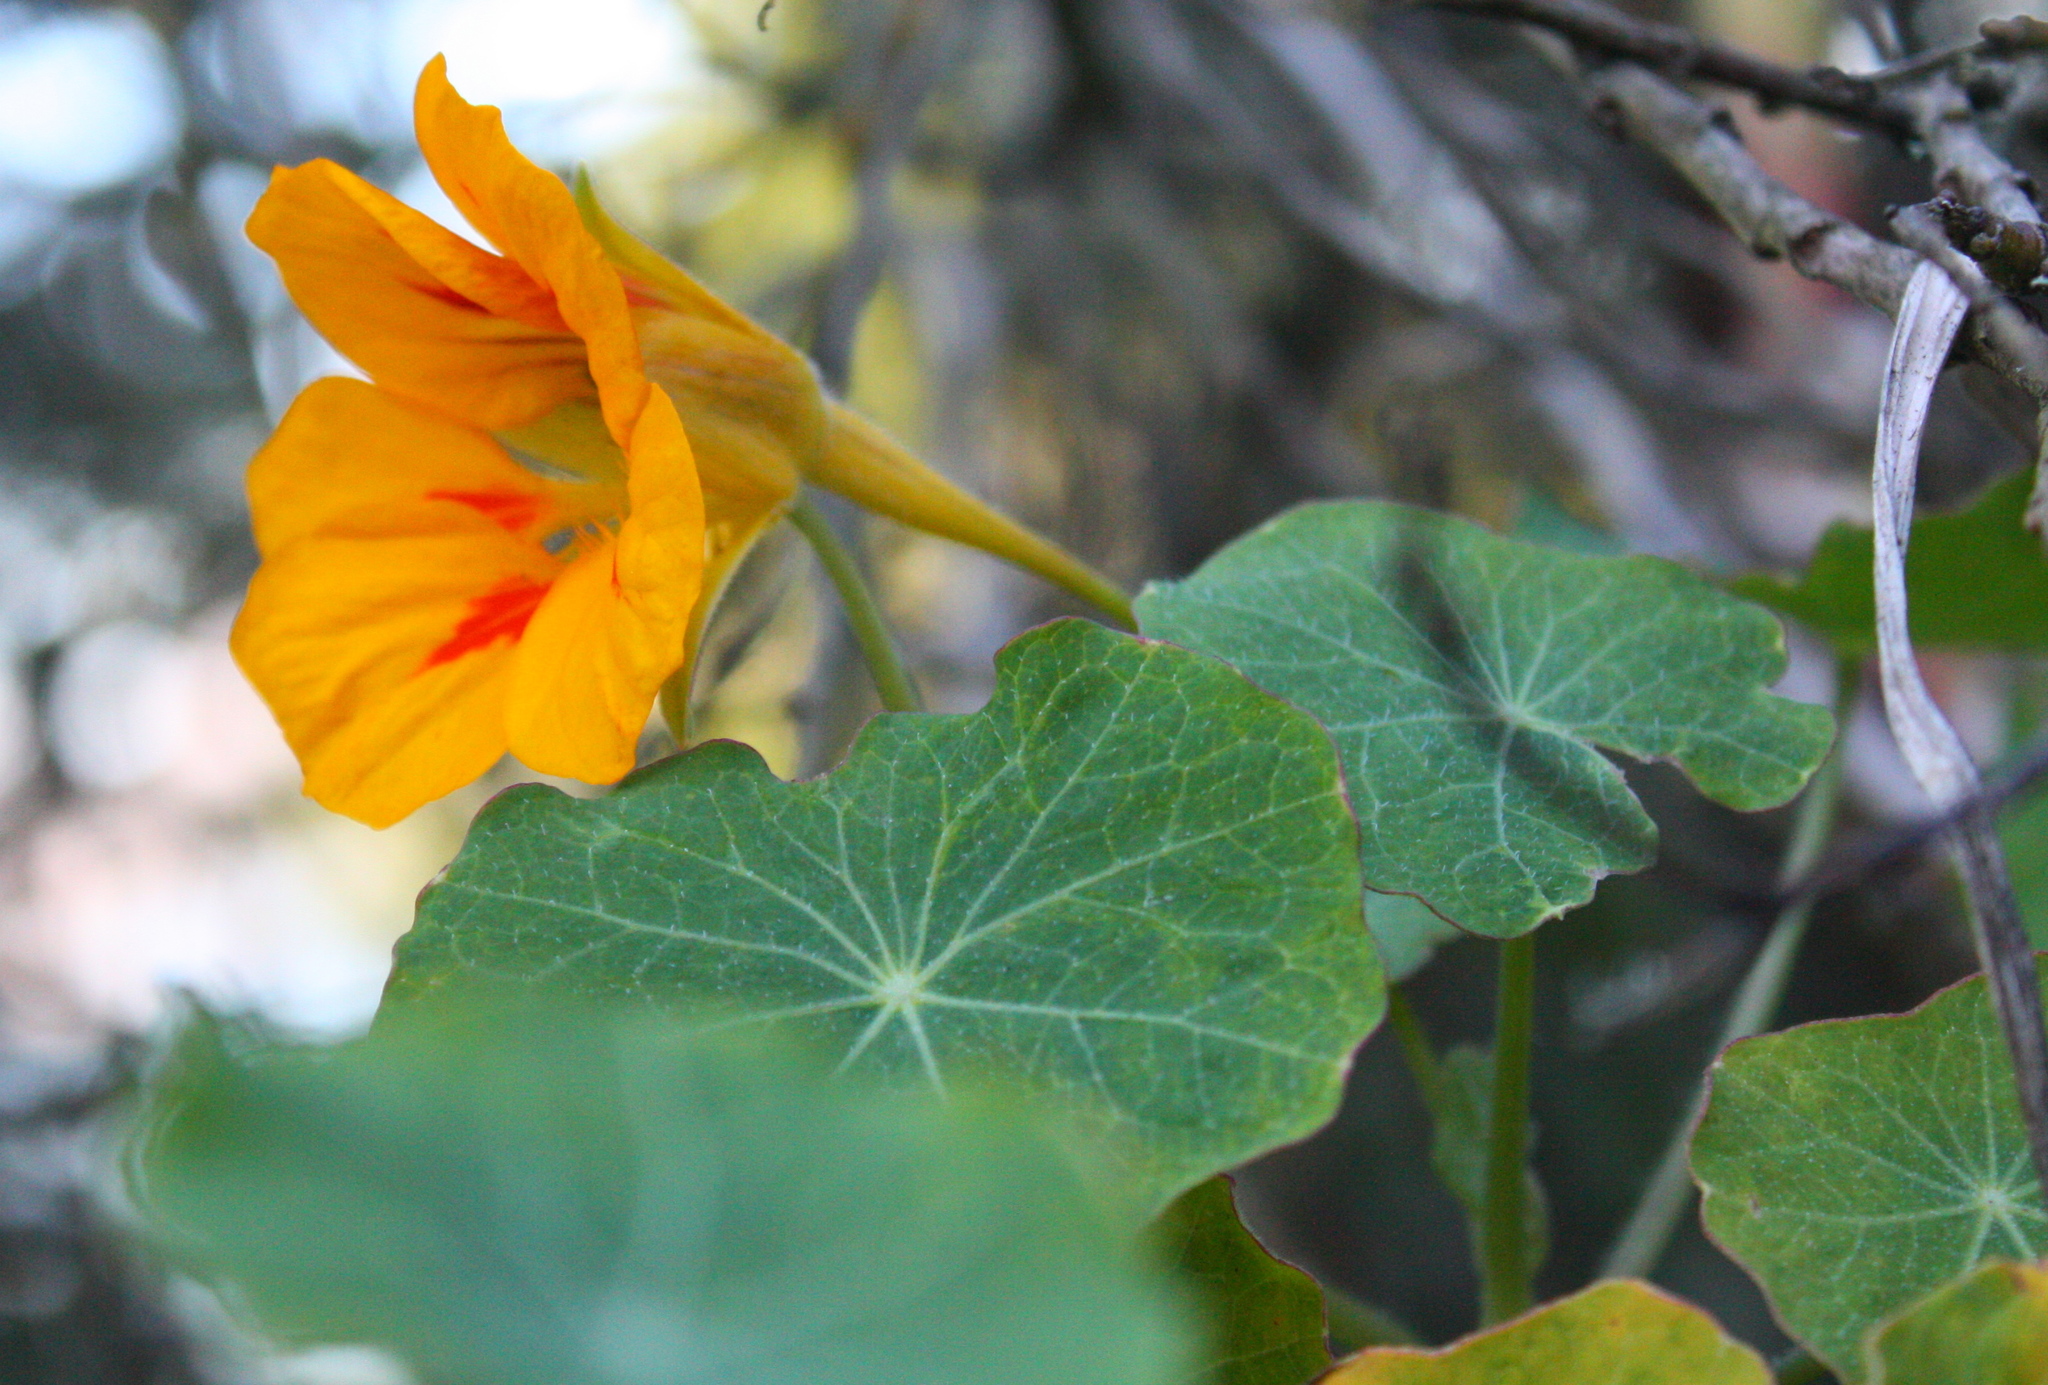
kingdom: Plantae
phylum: Tracheophyta
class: Magnoliopsida
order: Brassicales
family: Tropaeolaceae
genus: Tropaeolum
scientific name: Tropaeolum majus
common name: Nasturtium
